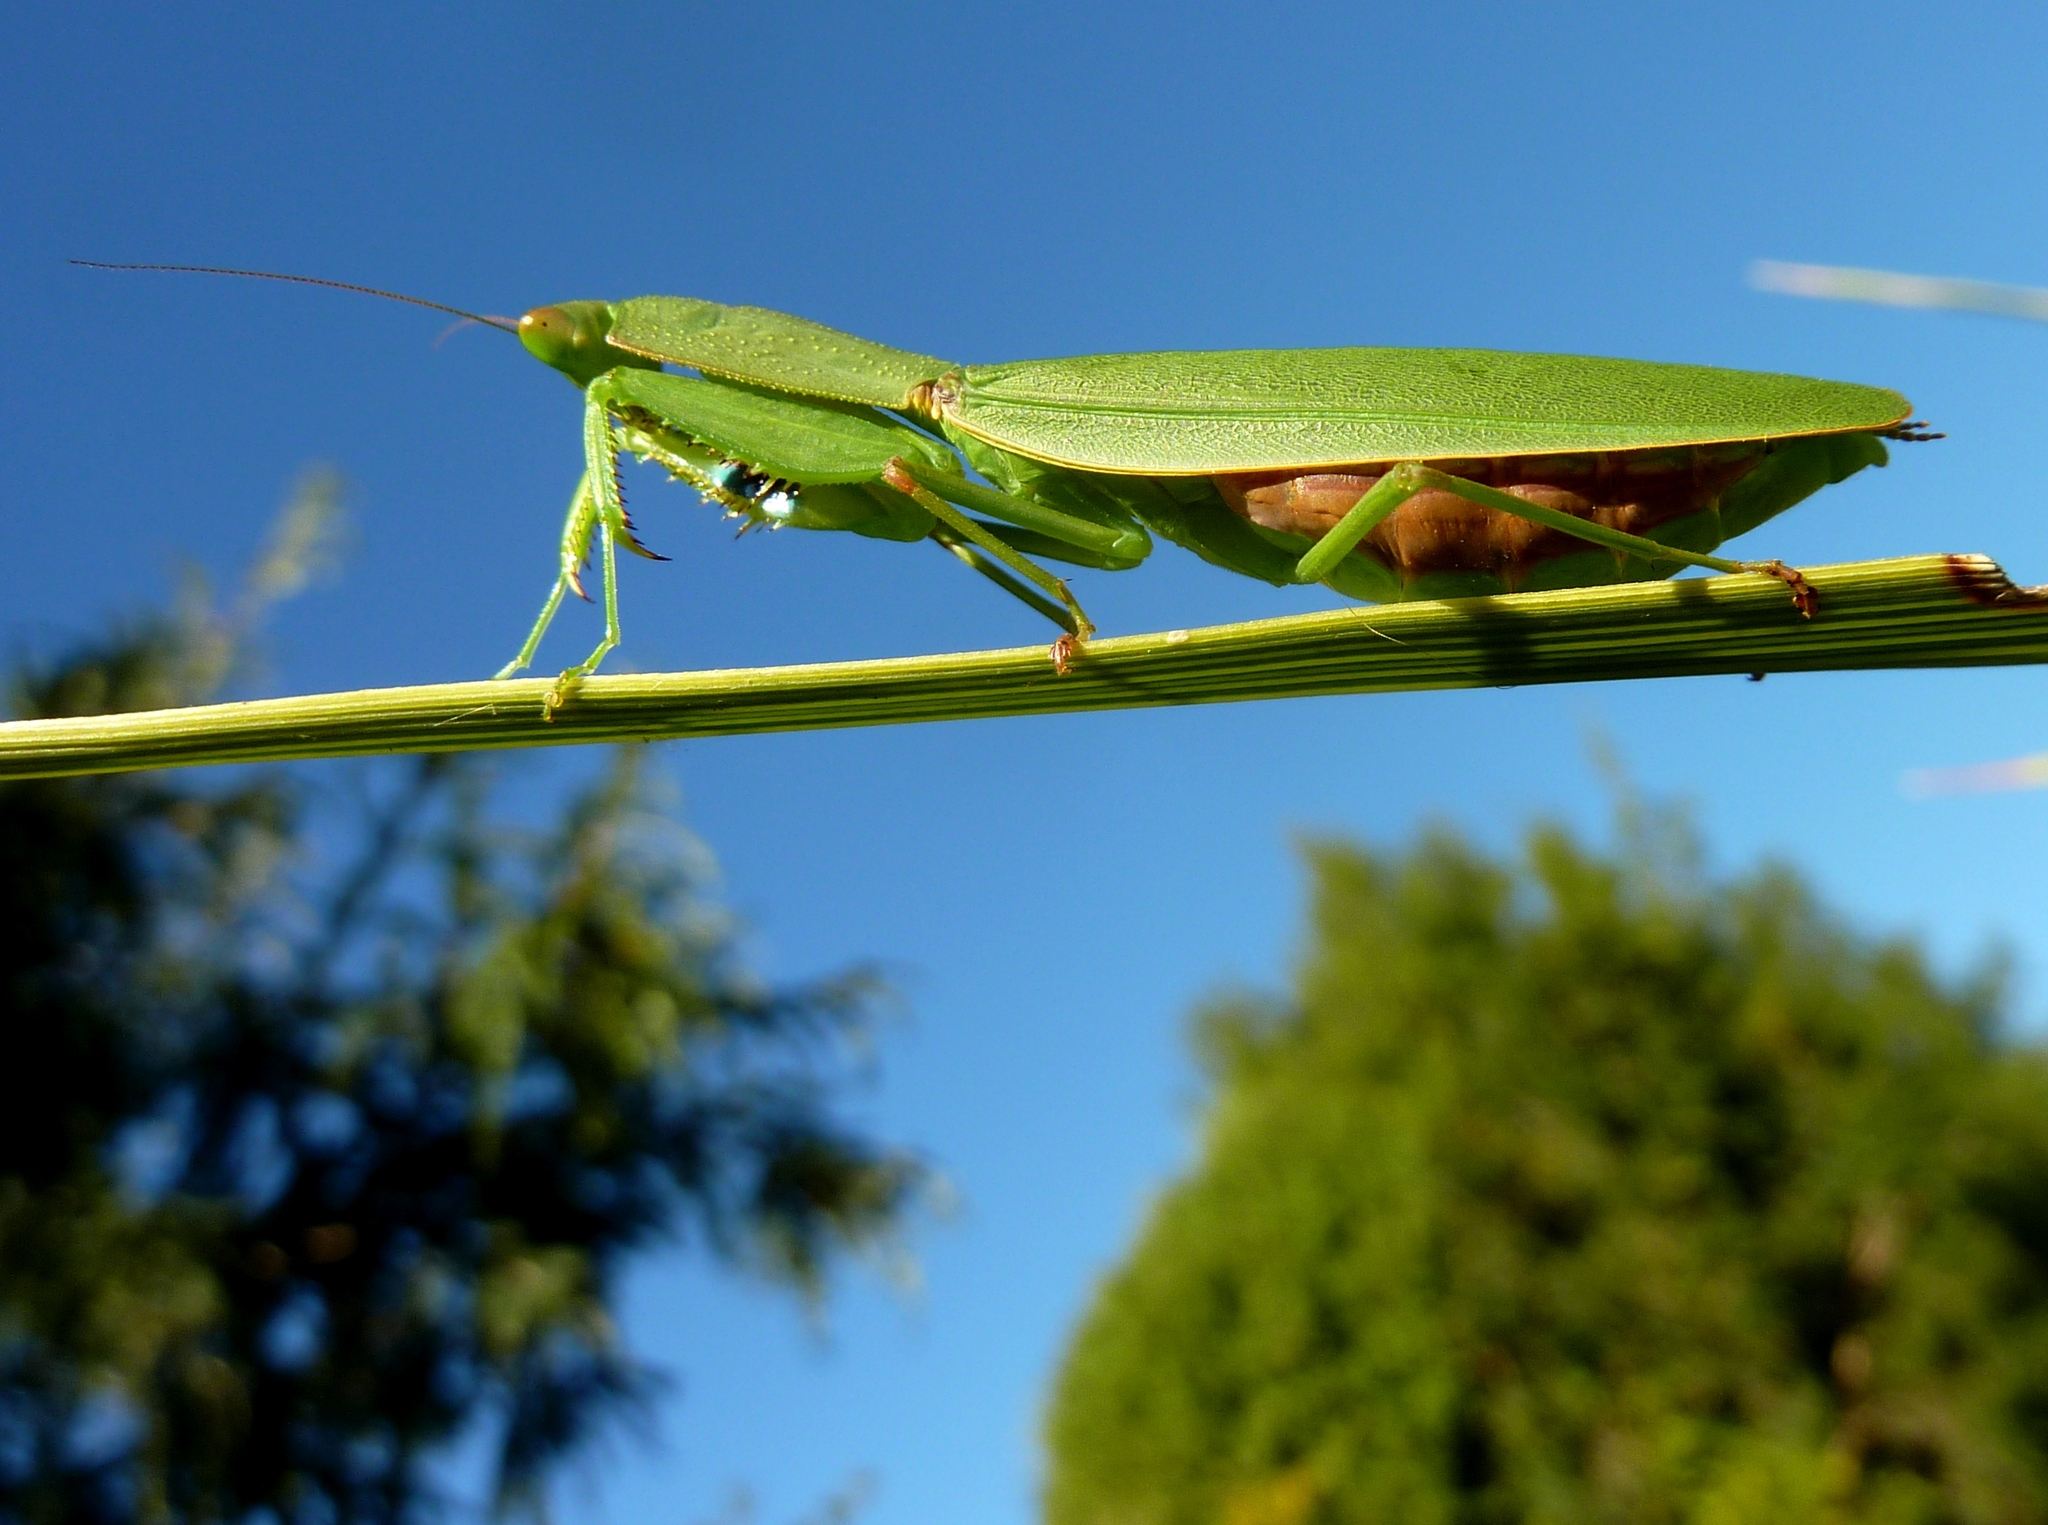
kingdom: Animalia
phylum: Arthropoda
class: Insecta
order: Mantodea
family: Mantidae
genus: Orthodera
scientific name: Orthodera novaezealandiae
